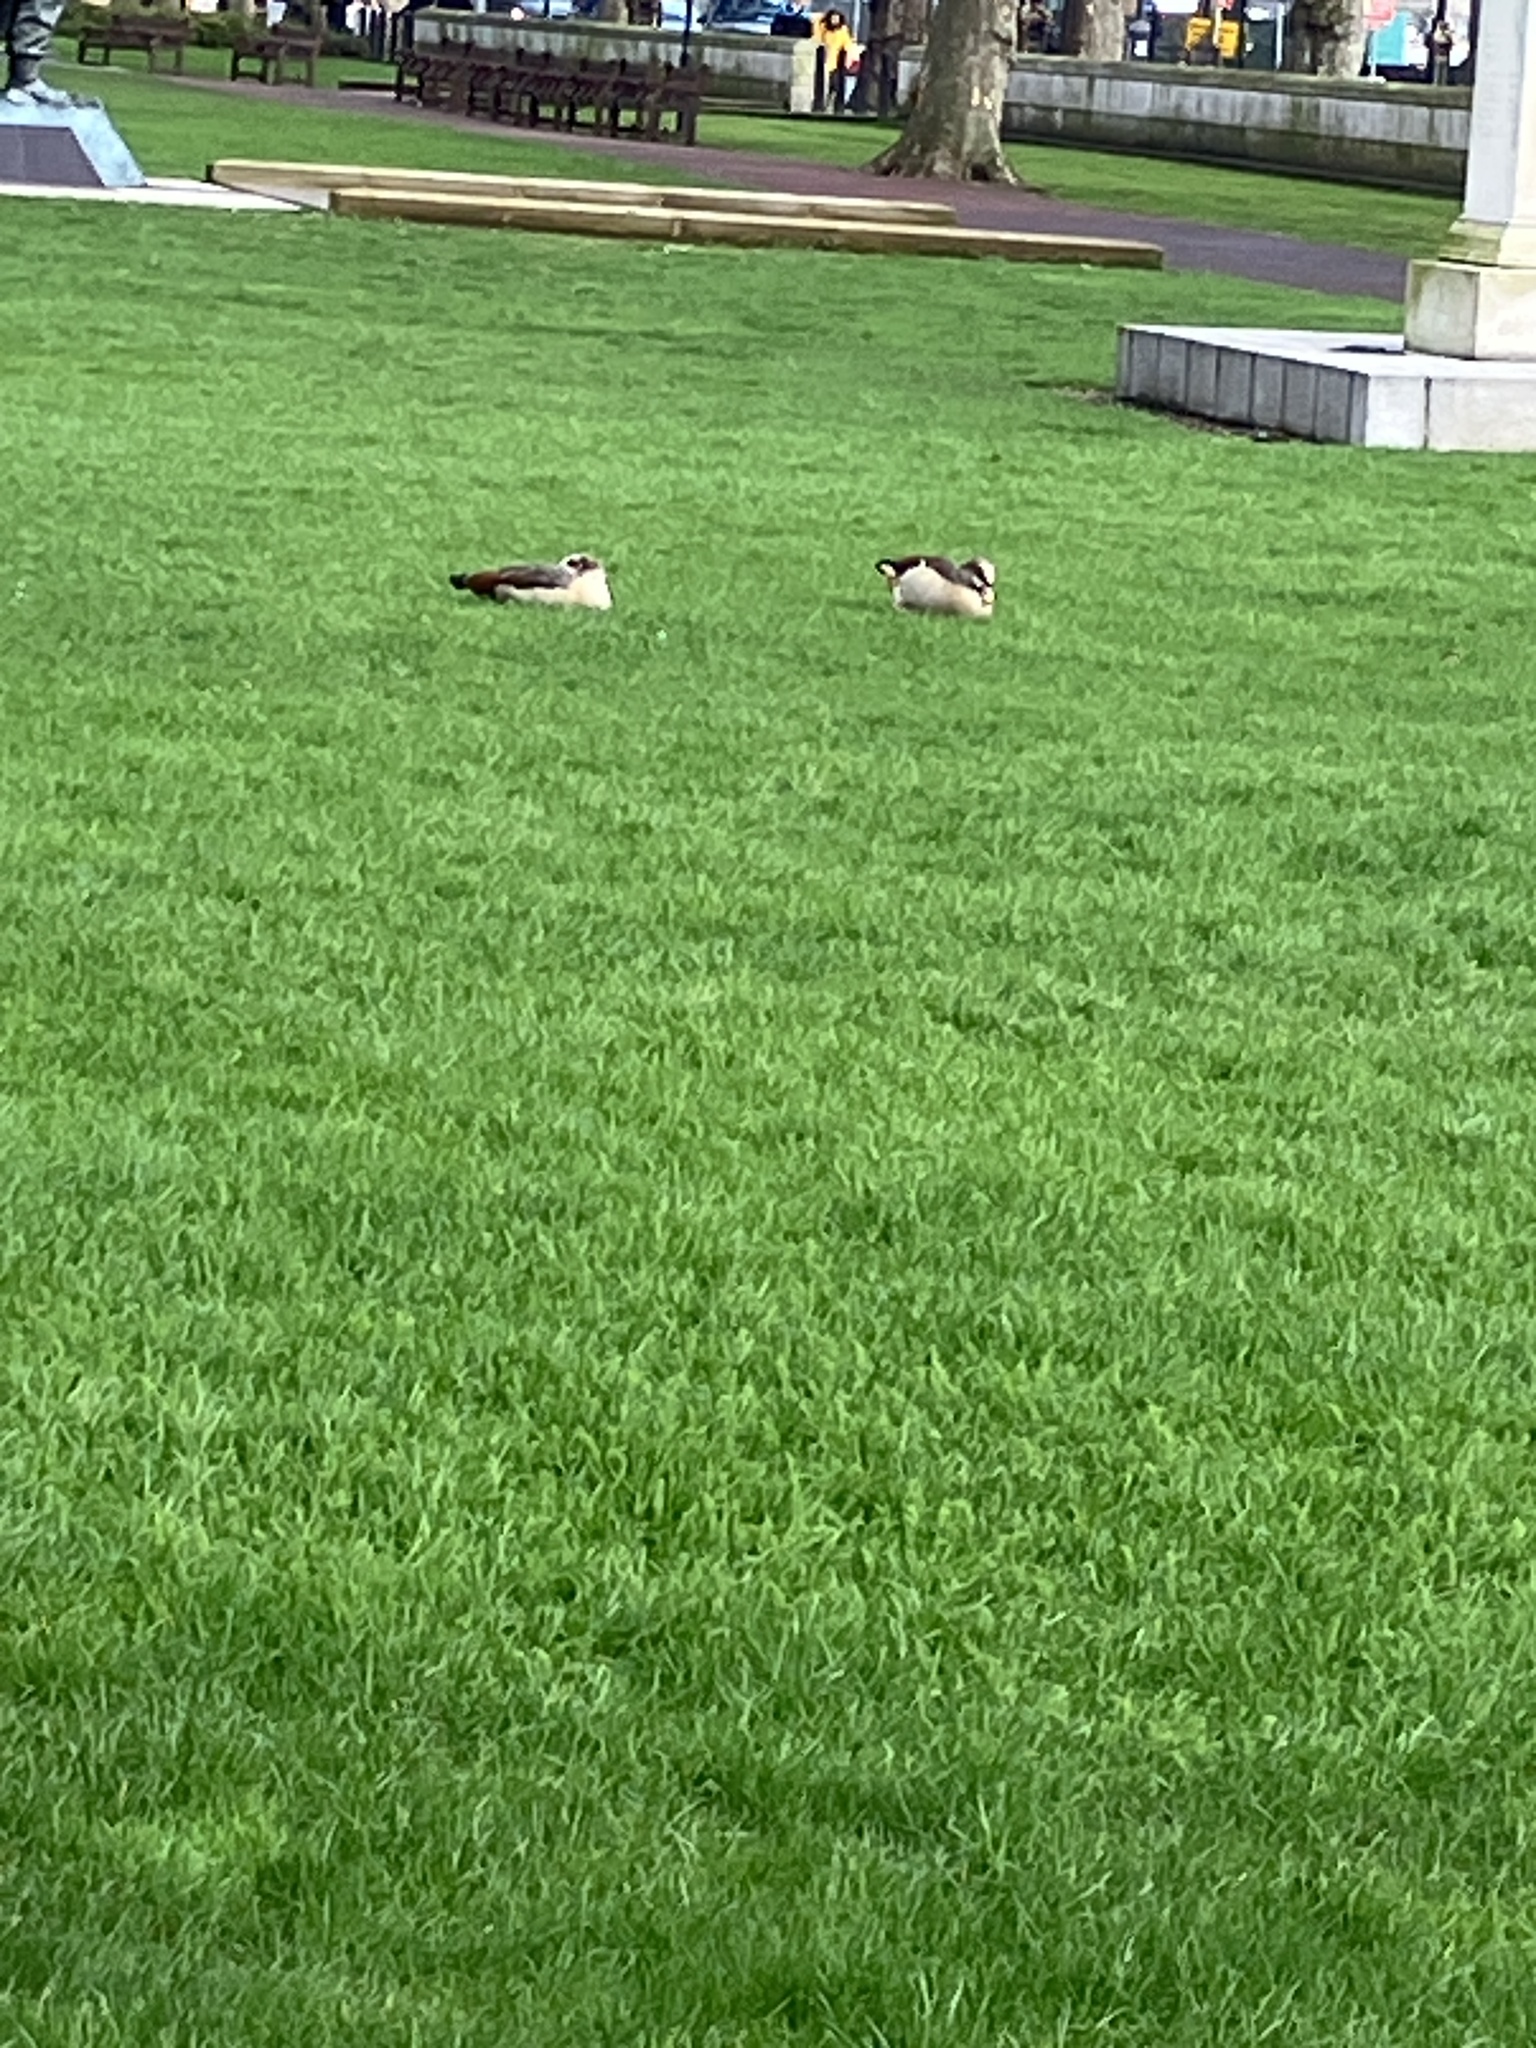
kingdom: Animalia
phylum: Chordata
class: Aves
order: Anseriformes
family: Anatidae
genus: Alopochen
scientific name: Alopochen aegyptiaca
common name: Egyptian goose
